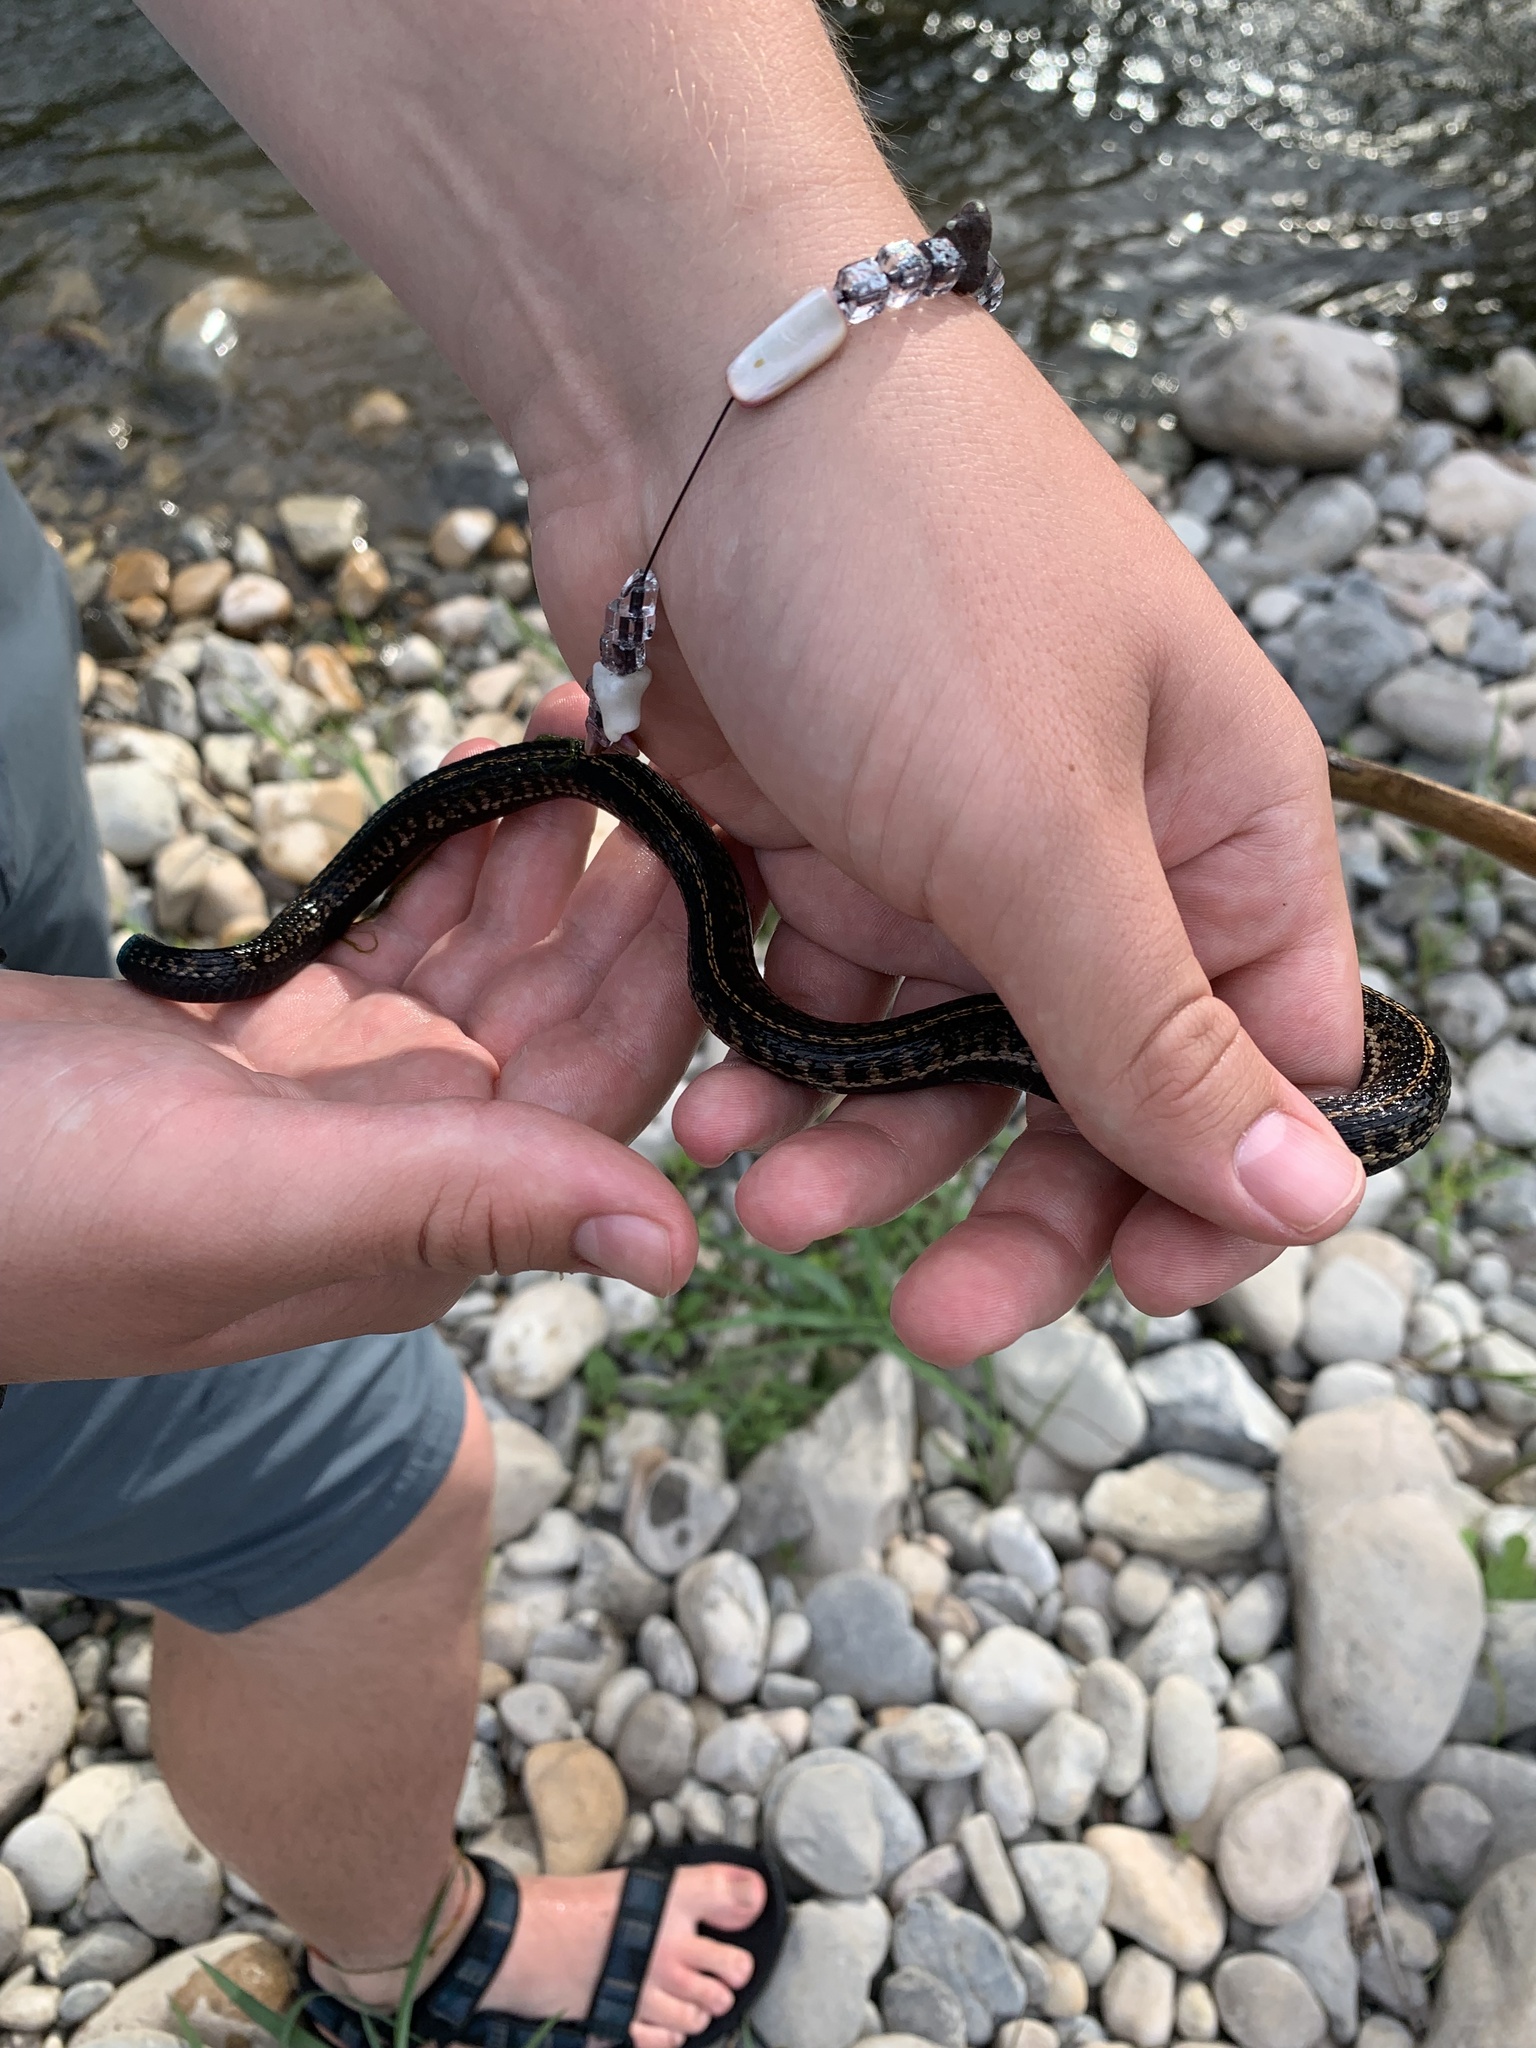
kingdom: Animalia
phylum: Chordata
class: Squamata
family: Colubridae
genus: Thamnophis
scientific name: Thamnophis elegans
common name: Western terrestrial garter snake
